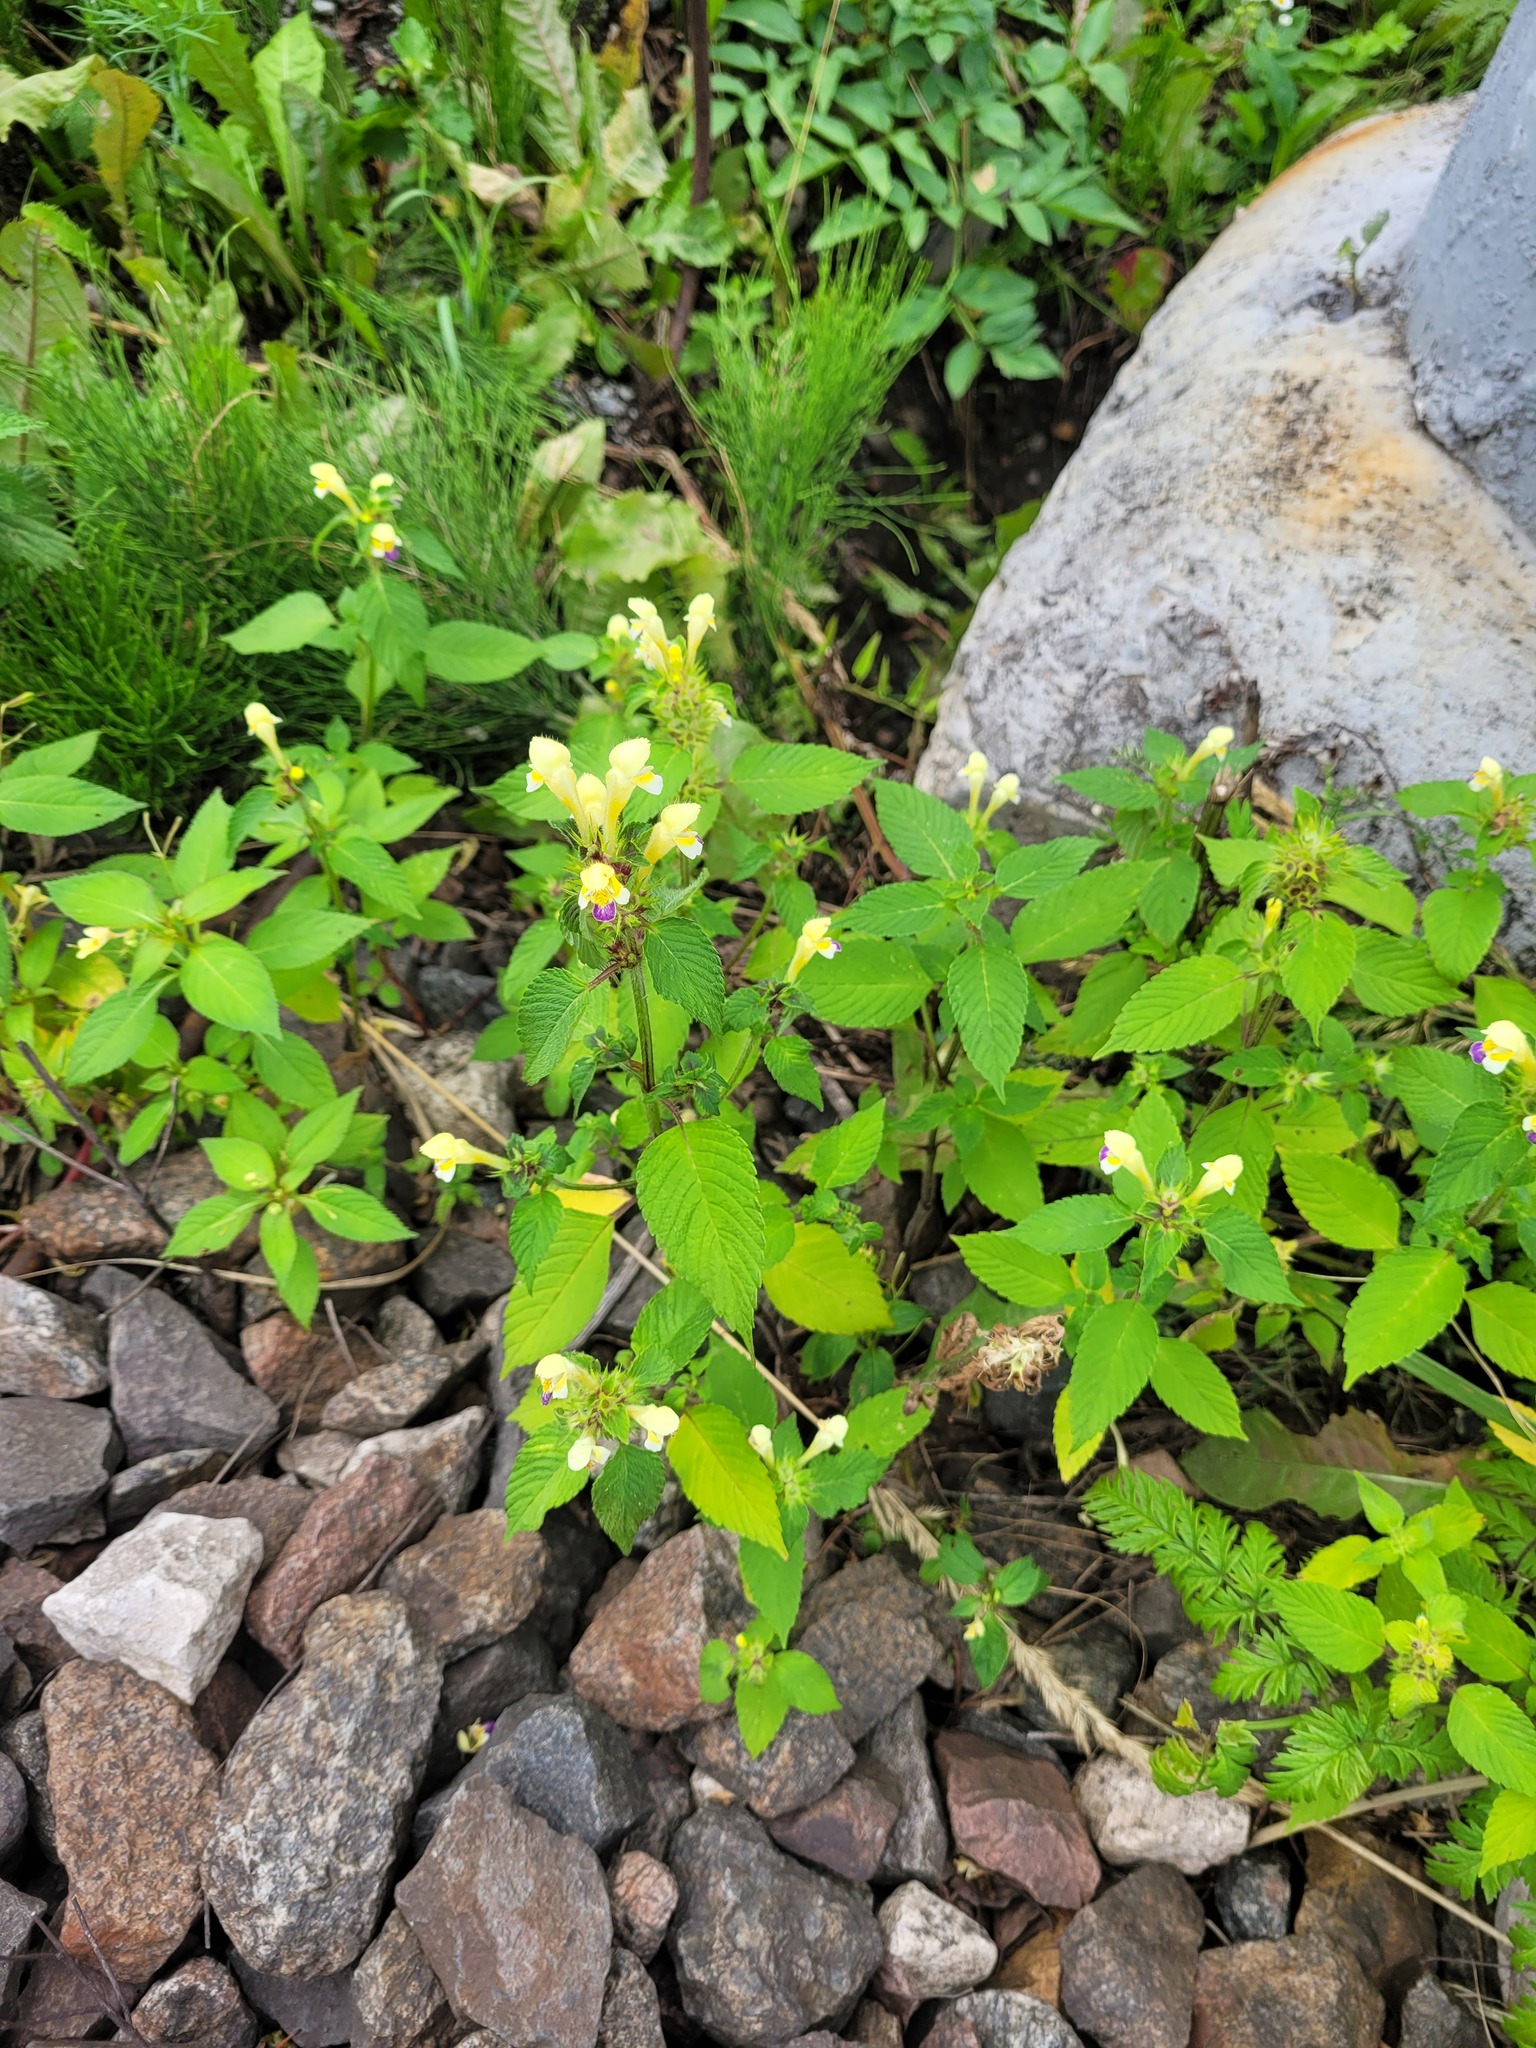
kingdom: Plantae
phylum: Tracheophyta
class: Magnoliopsida
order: Lamiales
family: Lamiaceae
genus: Galeopsis
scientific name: Galeopsis speciosa
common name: Large-flowered hemp-nettle
